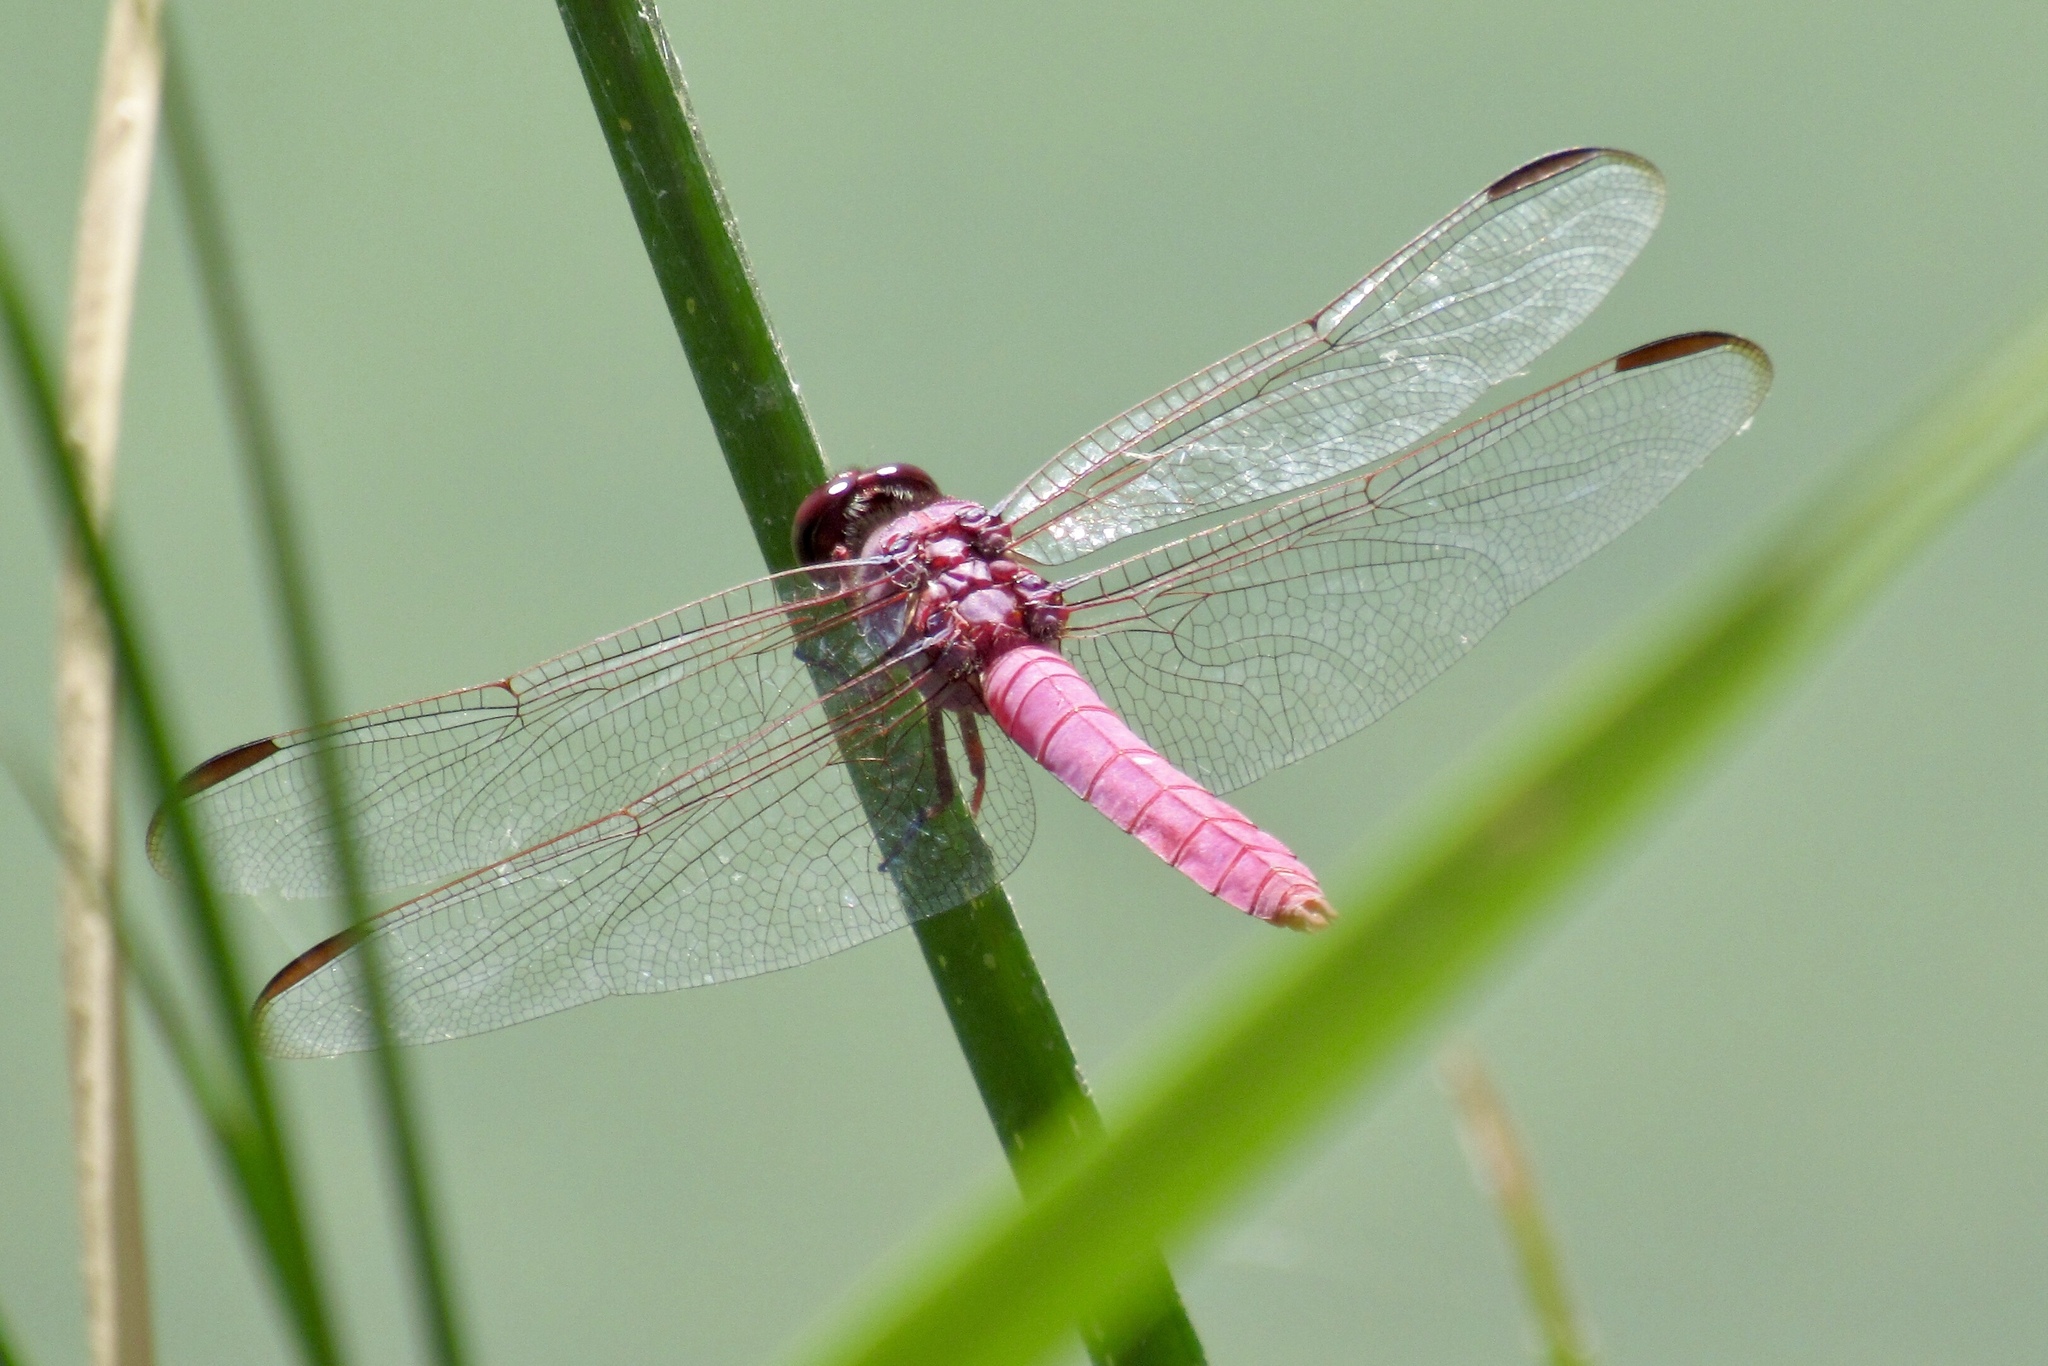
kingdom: Animalia
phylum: Arthropoda
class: Insecta
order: Odonata
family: Libellulidae
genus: Orthemis
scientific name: Orthemis ferruginea
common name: Roseate skimmer
